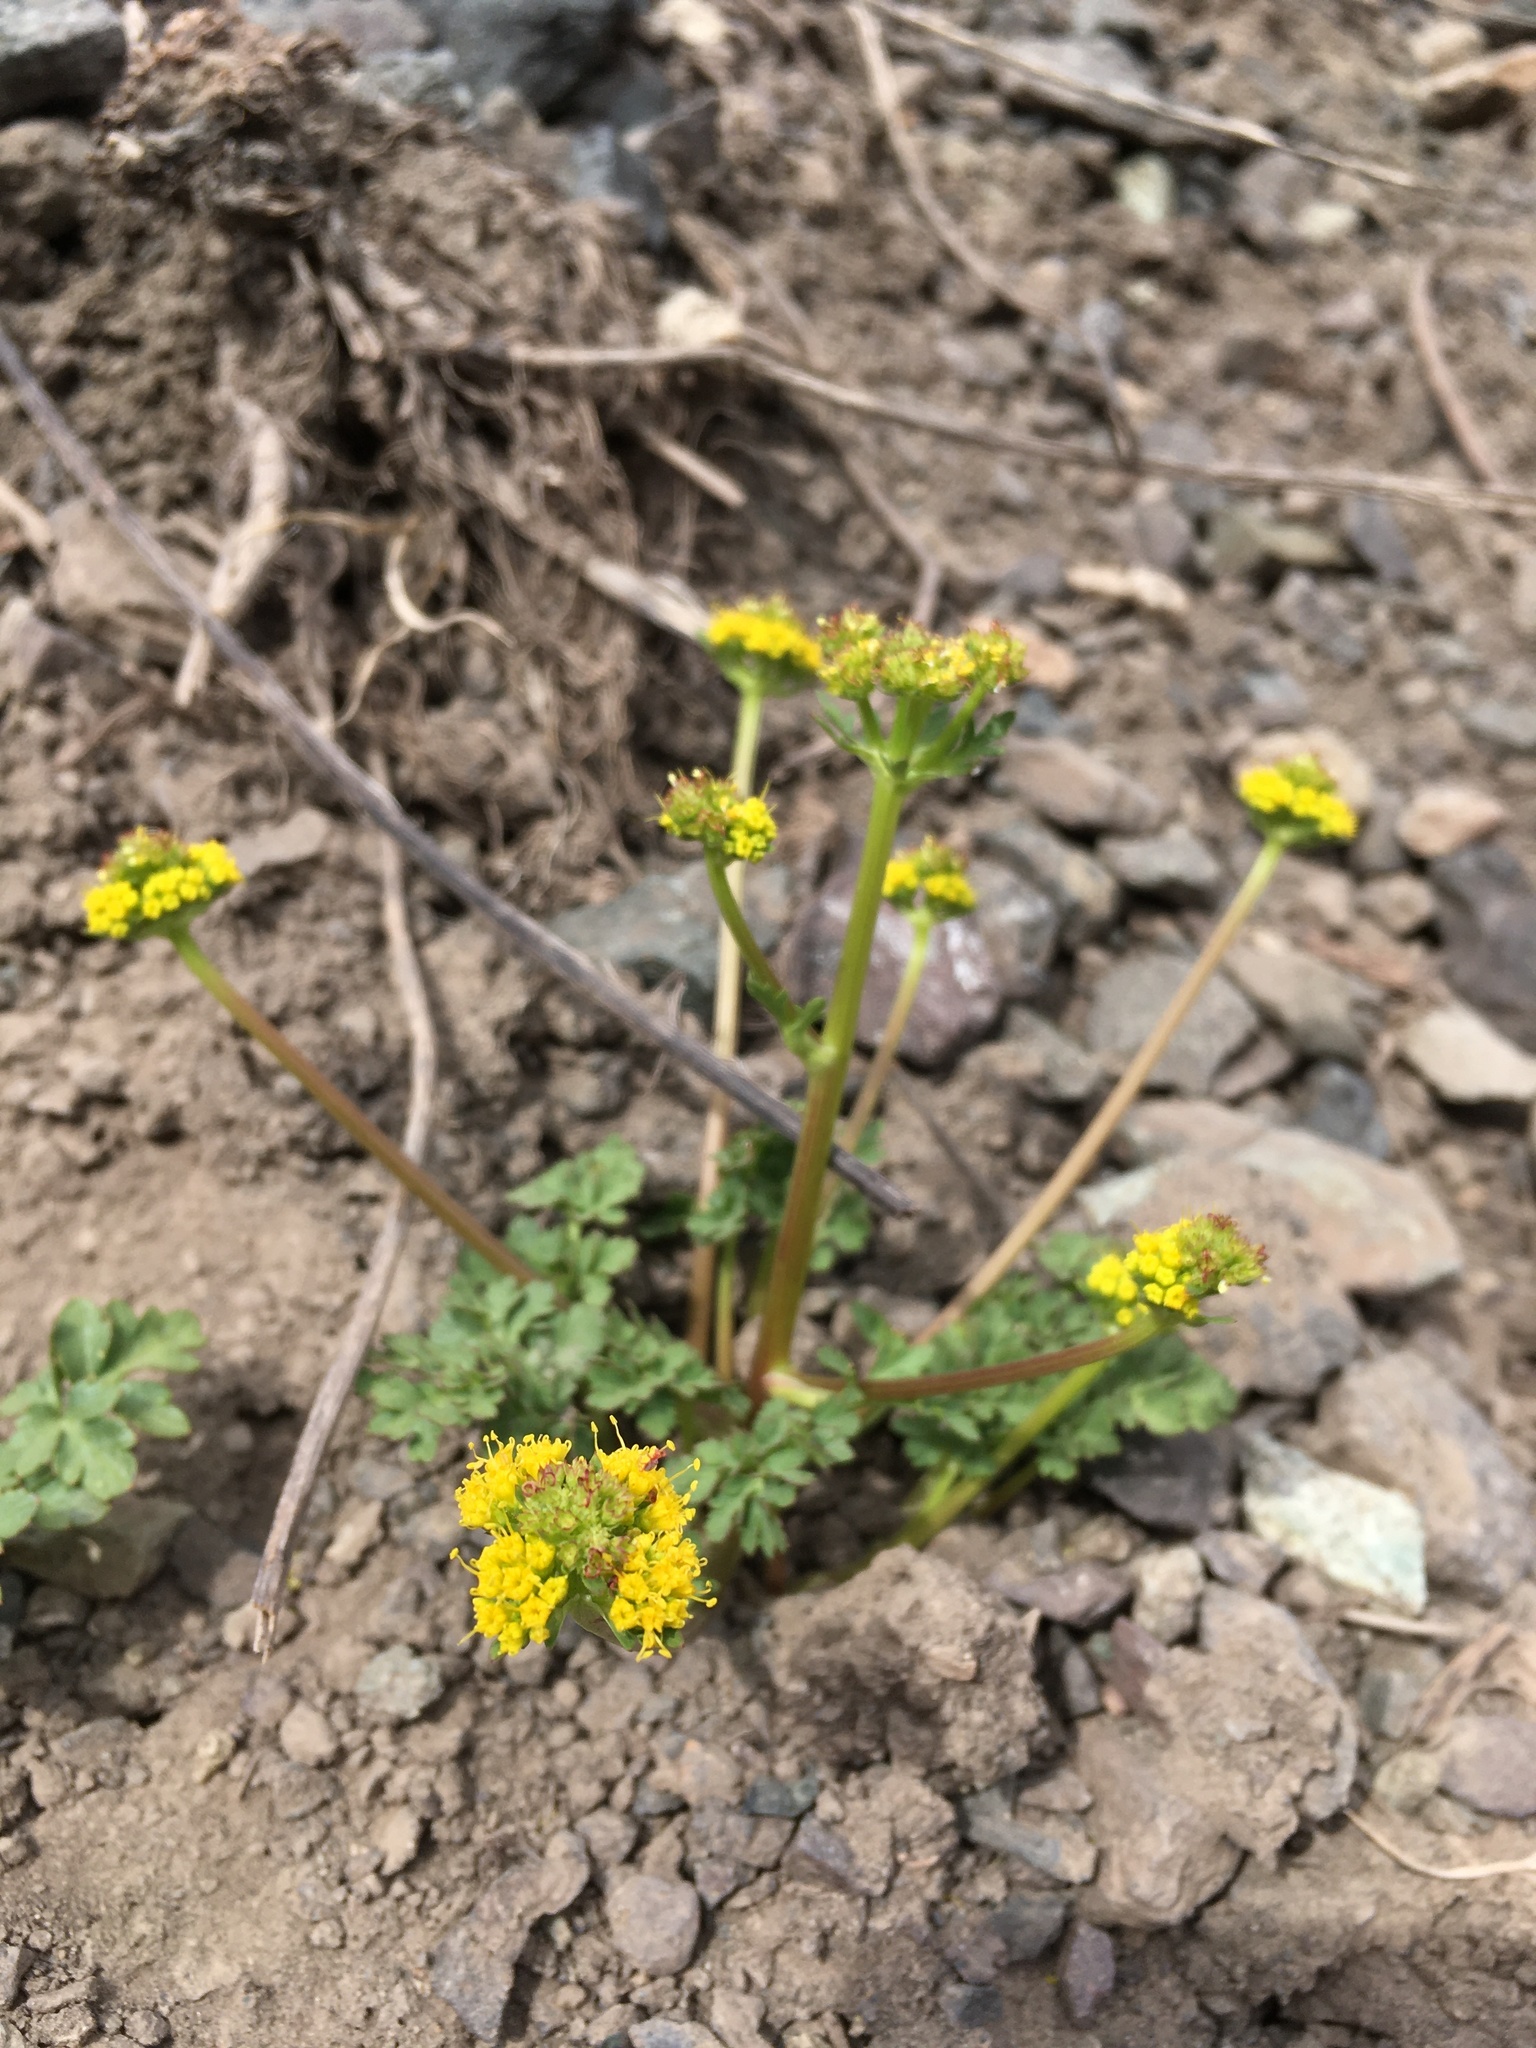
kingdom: Plantae
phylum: Tracheophyta
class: Magnoliopsida
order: Apiales
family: Apiaceae
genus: Sanicula
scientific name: Sanicula graveolens
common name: Sierra sanicle
